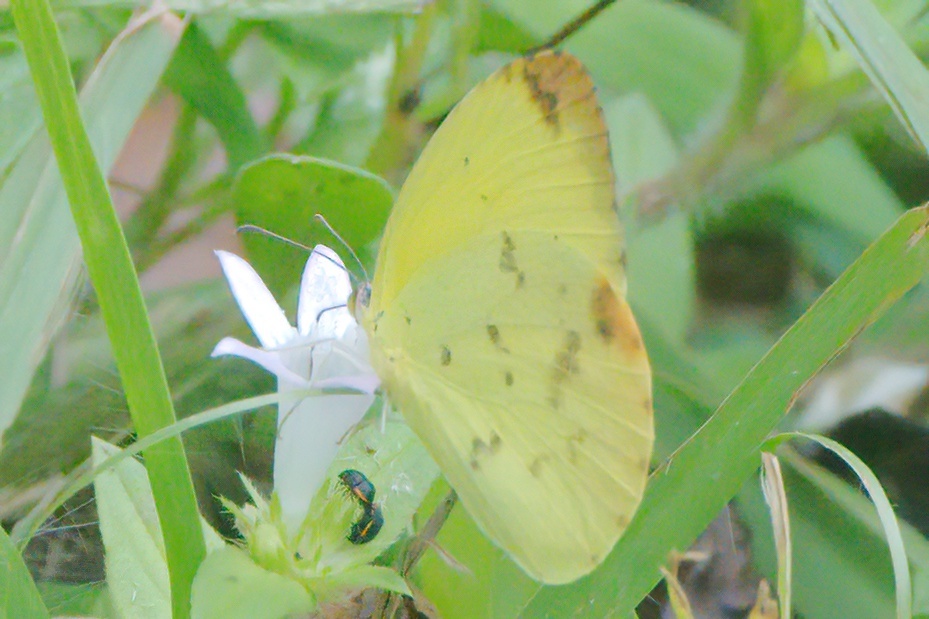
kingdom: Animalia
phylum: Arthropoda
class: Insecta
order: Lepidoptera
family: Pieridae
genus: Pyrisitia
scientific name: Pyrisitia dina
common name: Dina yellow
